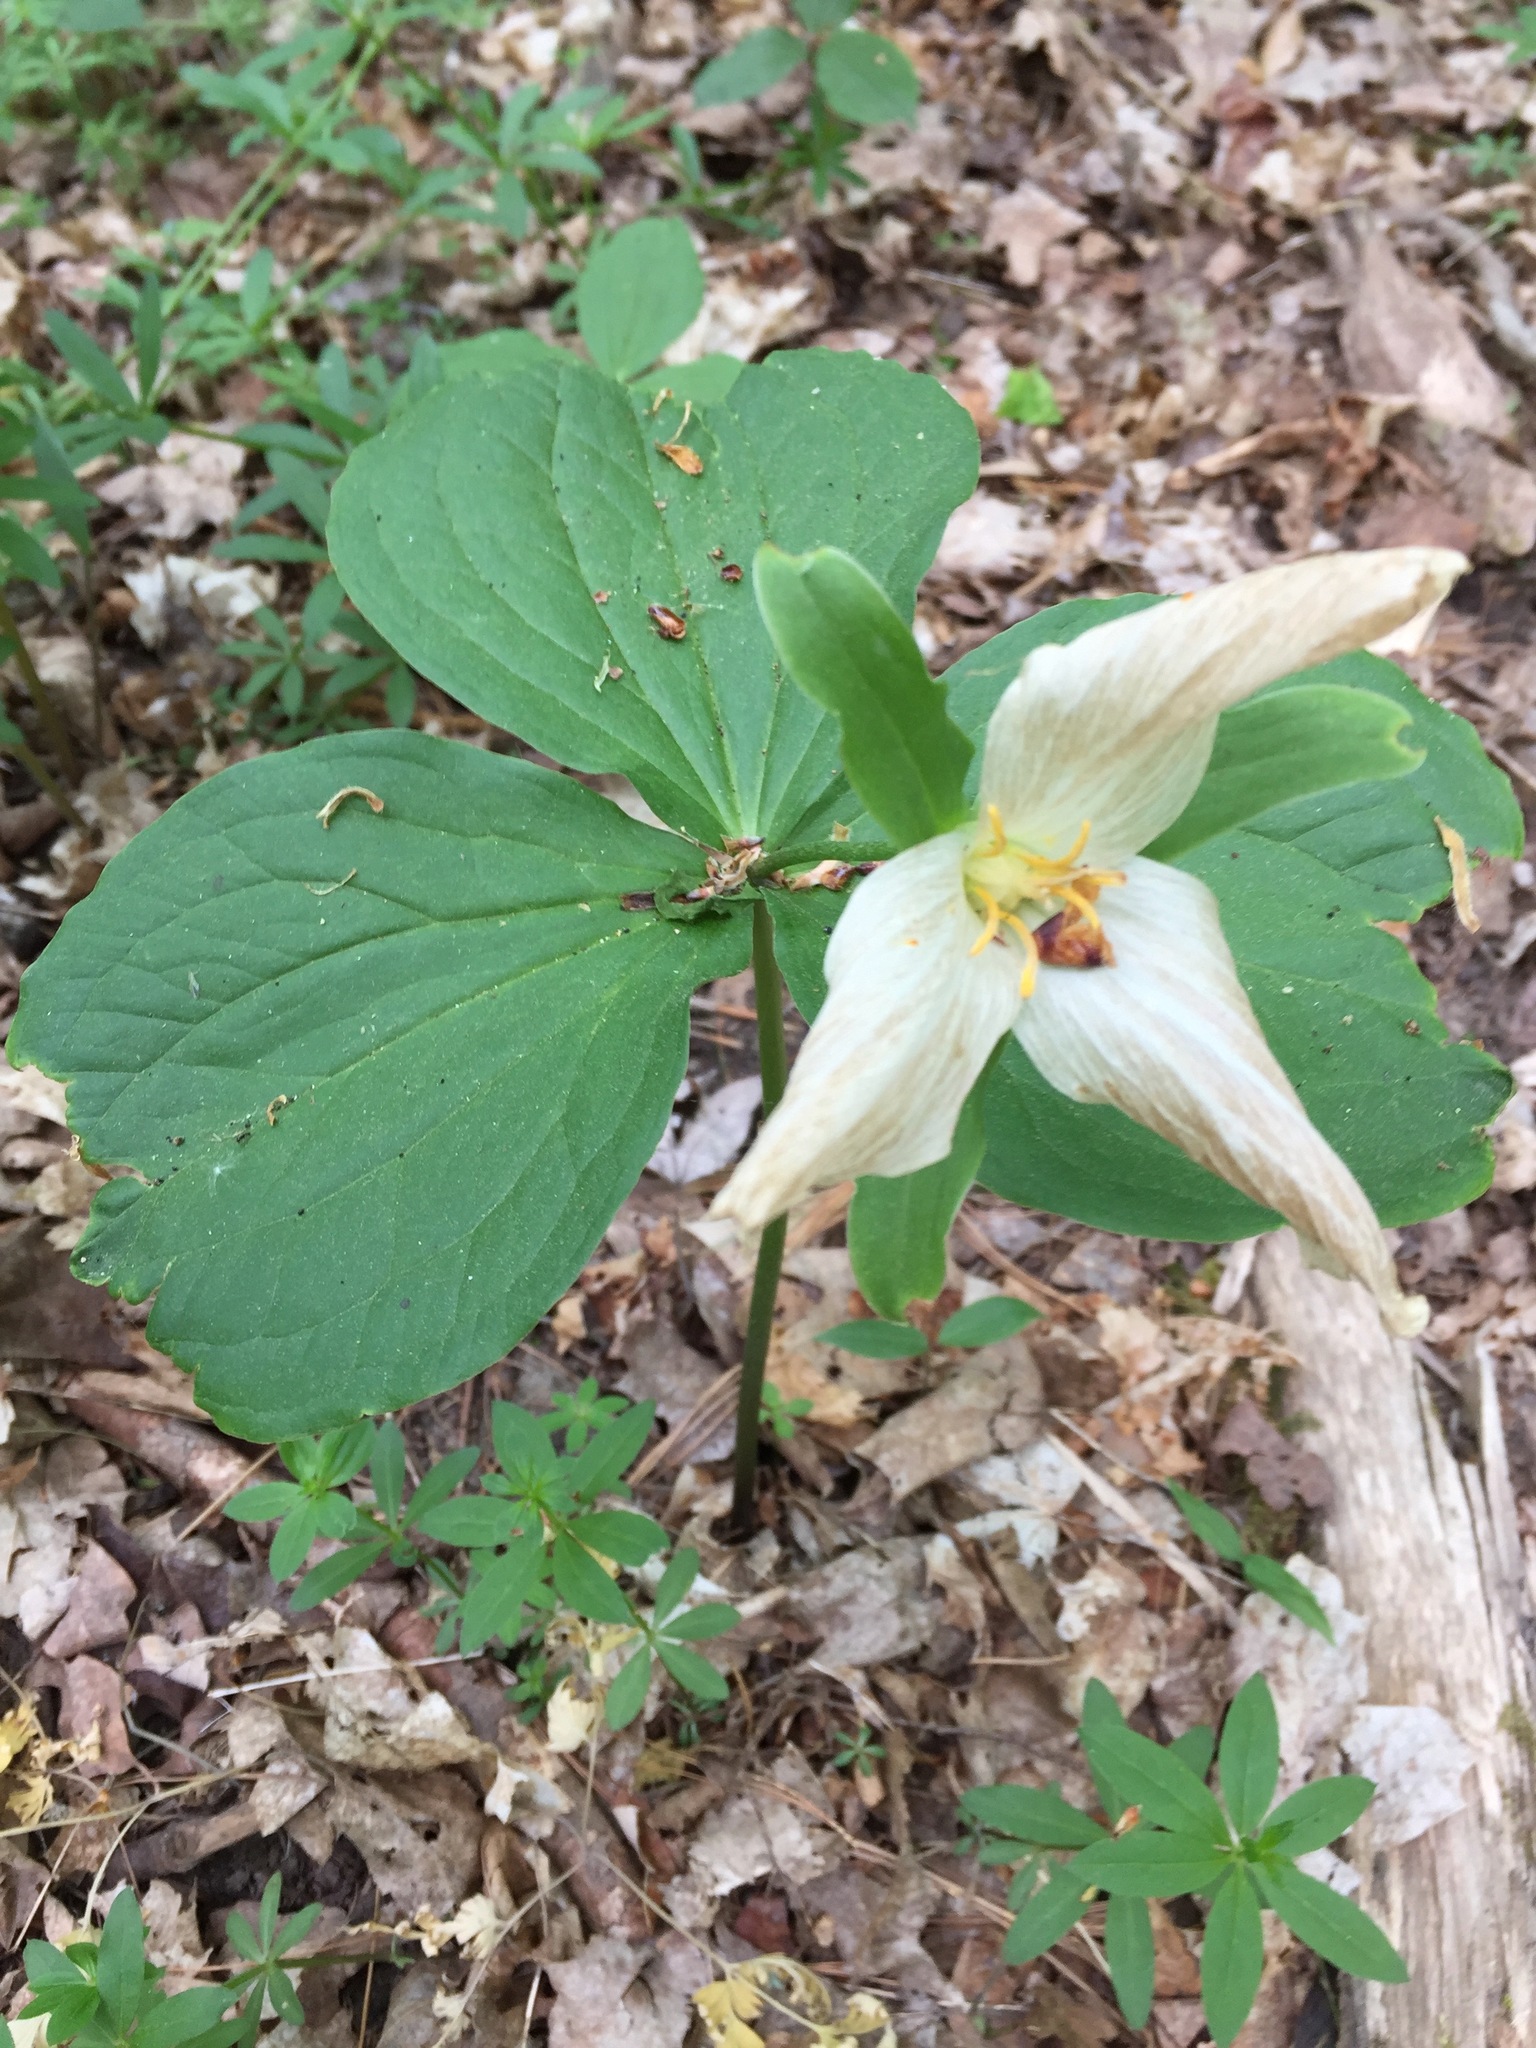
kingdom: Plantae
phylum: Tracheophyta
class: Liliopsida
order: Liliales
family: Melanthiaceae
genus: Trillium
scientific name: Trillium grandiflorum
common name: Great white trillium
